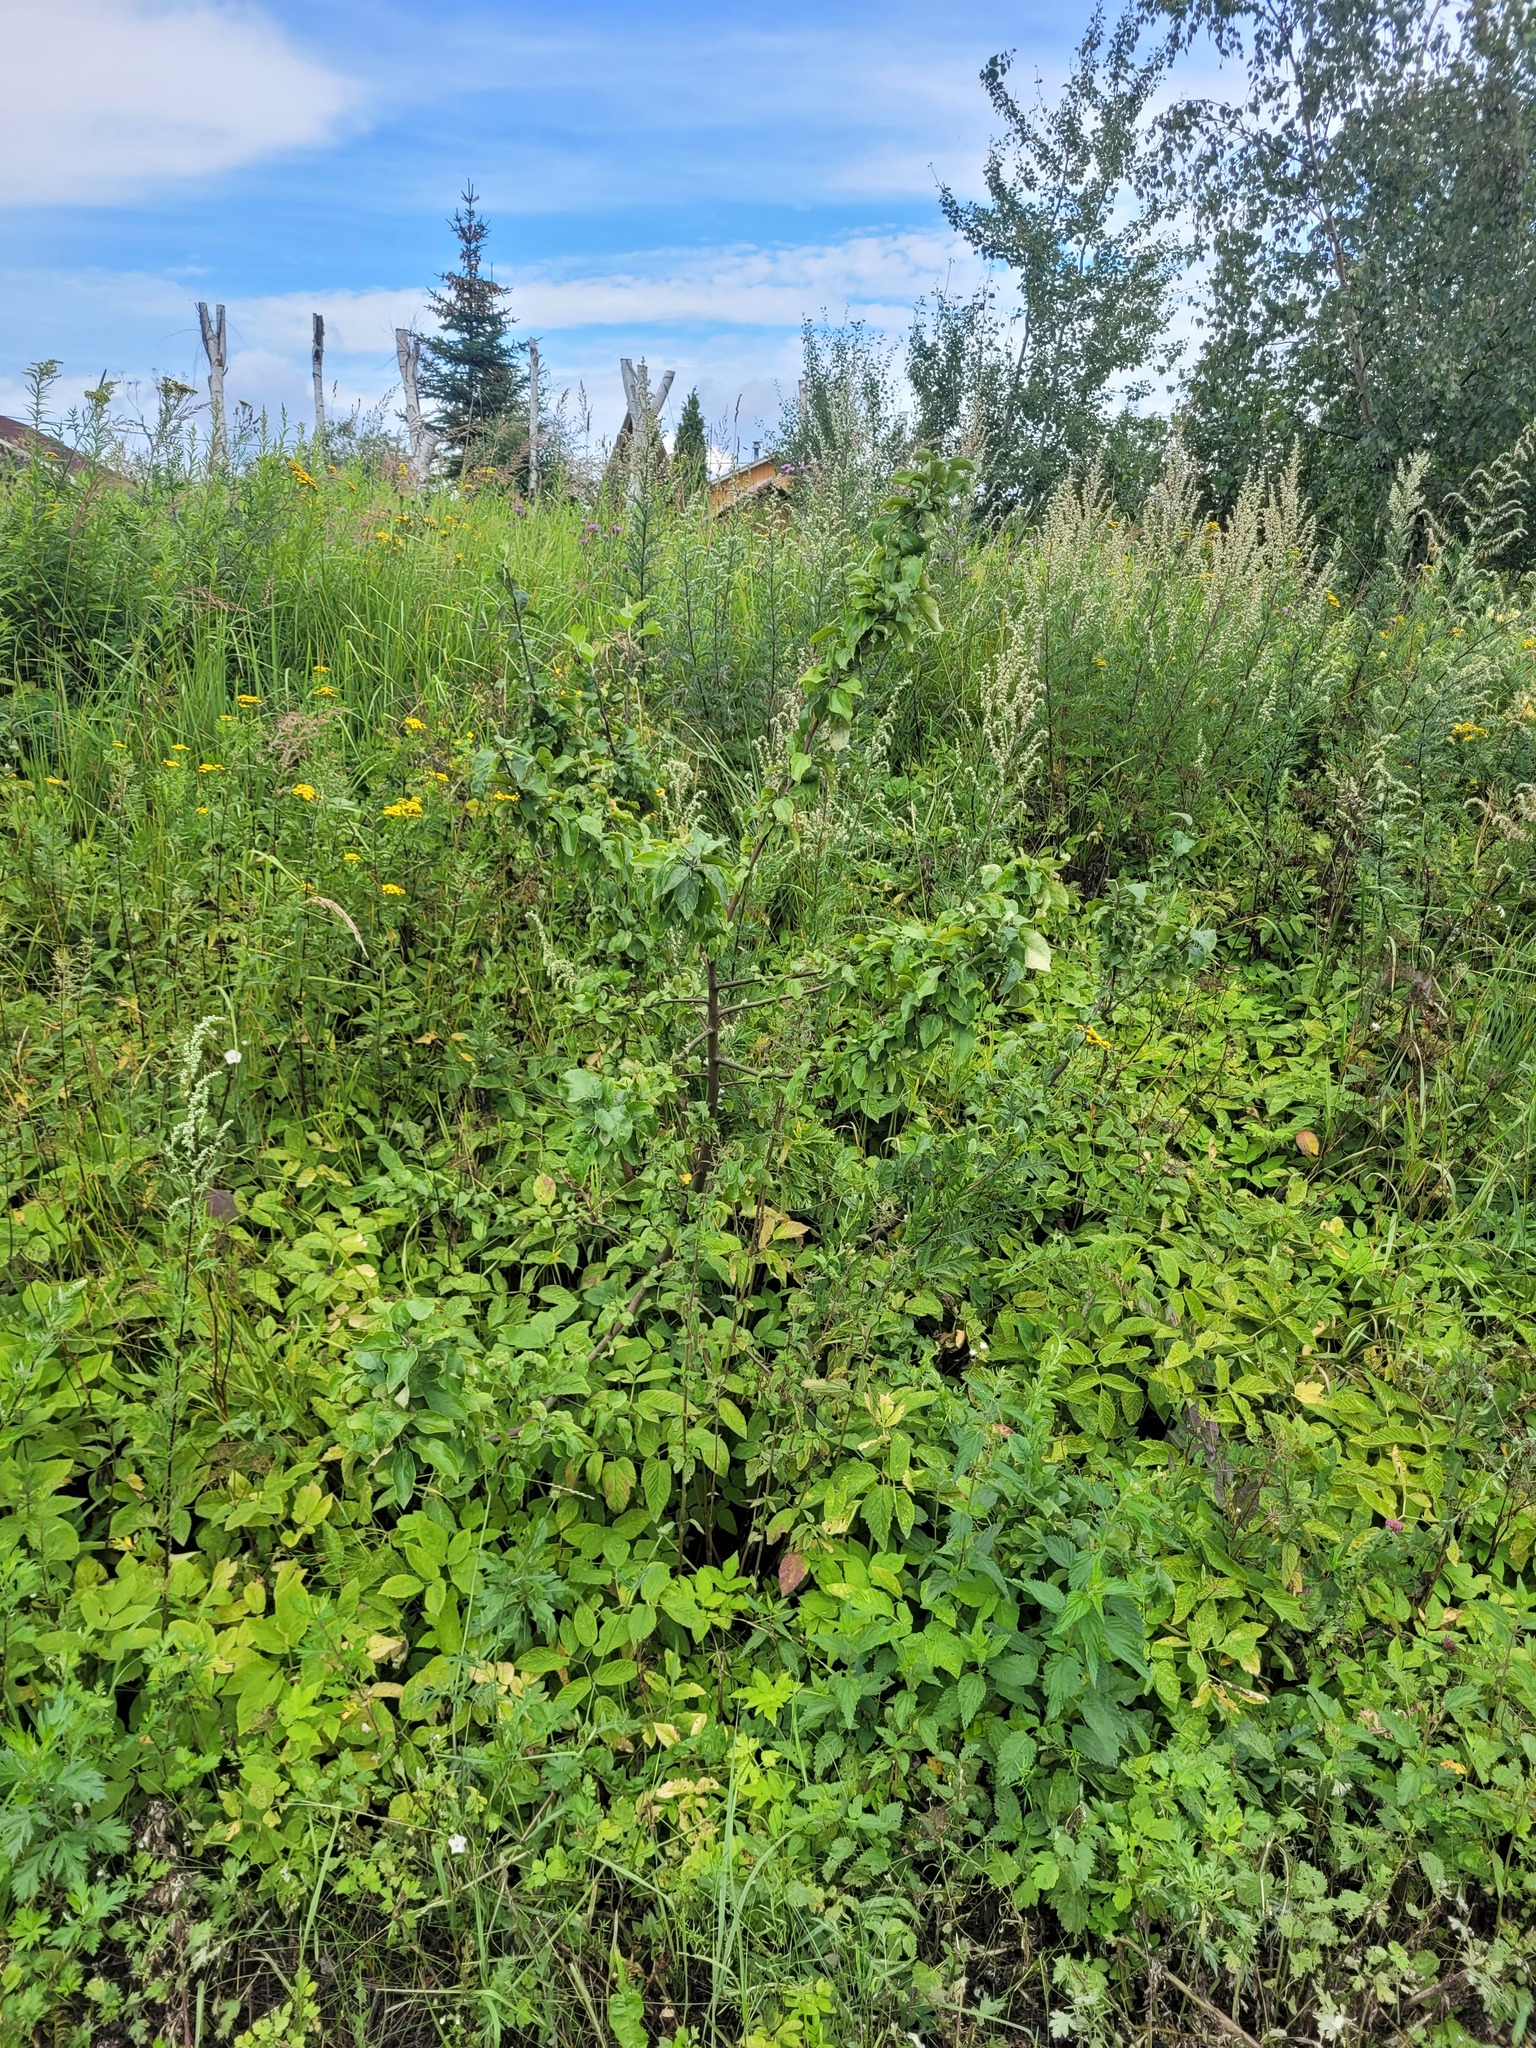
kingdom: Plantae
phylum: Tracheophyta
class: Magnoliopsida
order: Apiales
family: Apiaceae
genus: Aegopodium
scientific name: Aegopodium podagraria
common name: Ground-elder
